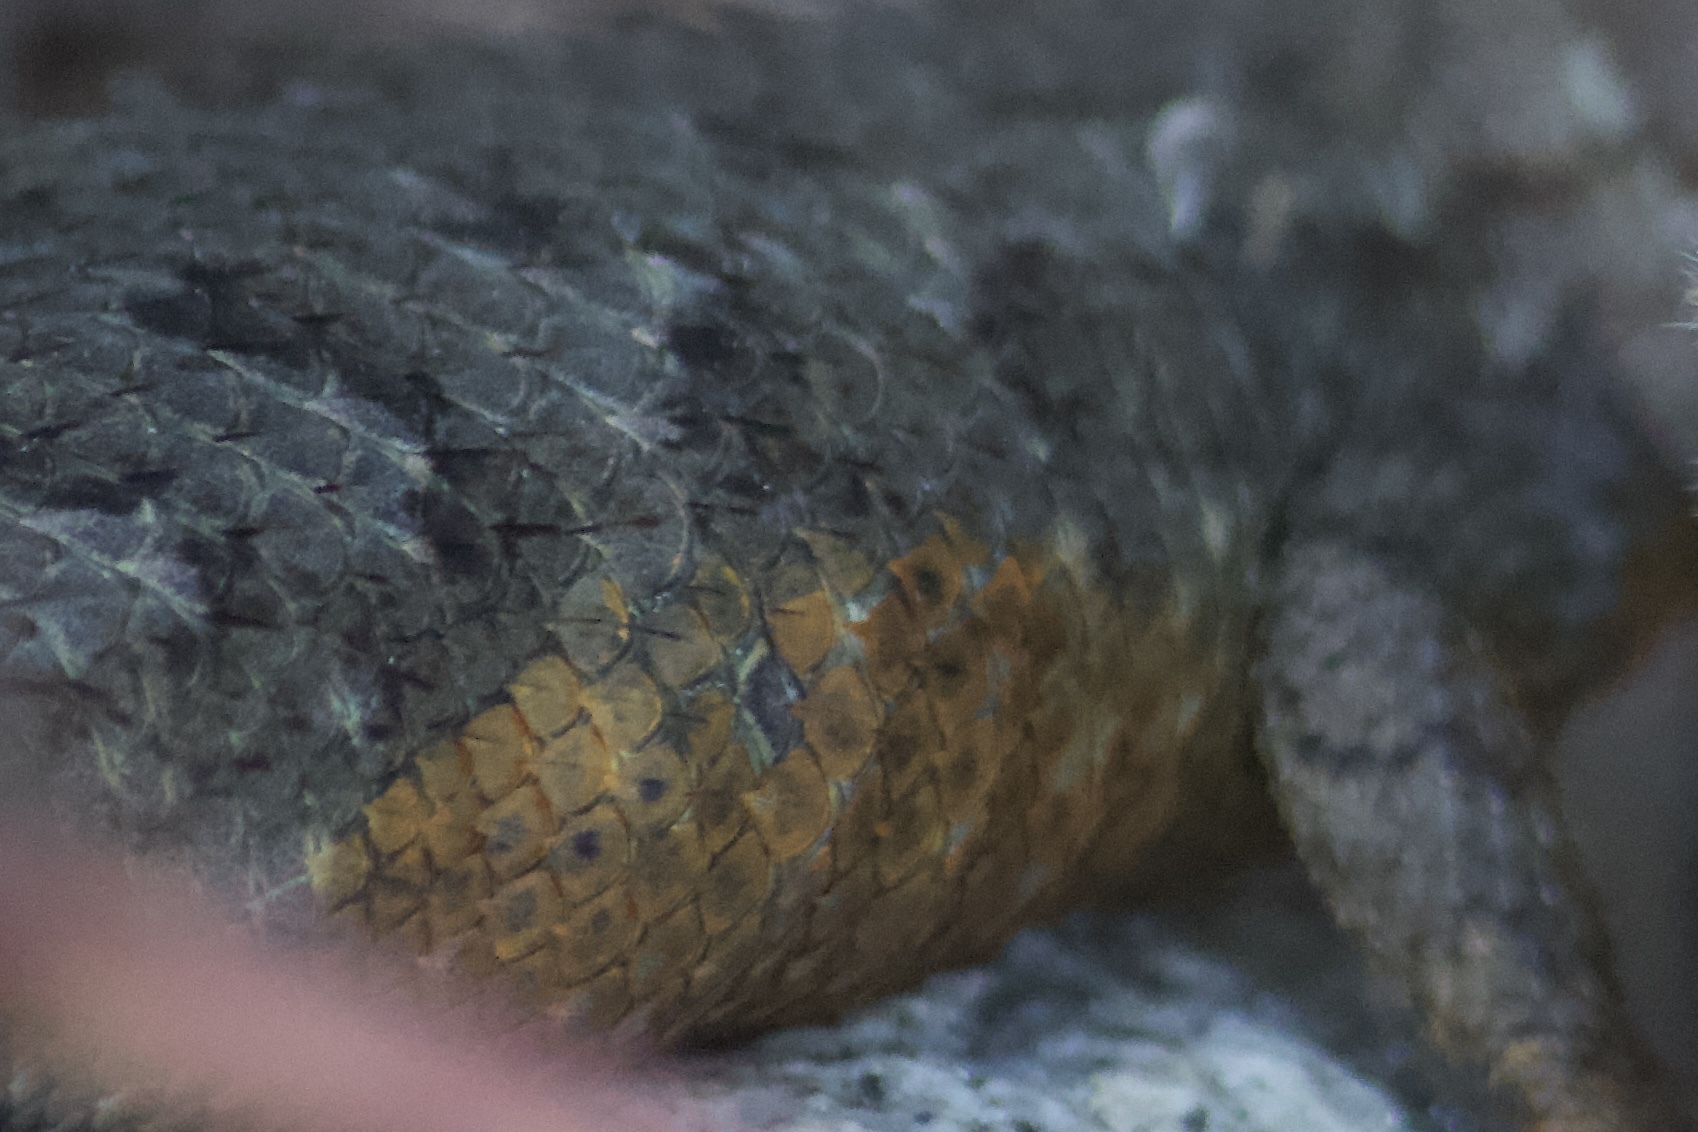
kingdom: Animalia
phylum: Chordata
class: Squamata
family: Phrynosomatidae
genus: Sceloporus
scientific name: Sceloporus occidentalis
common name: Western fence lizard
